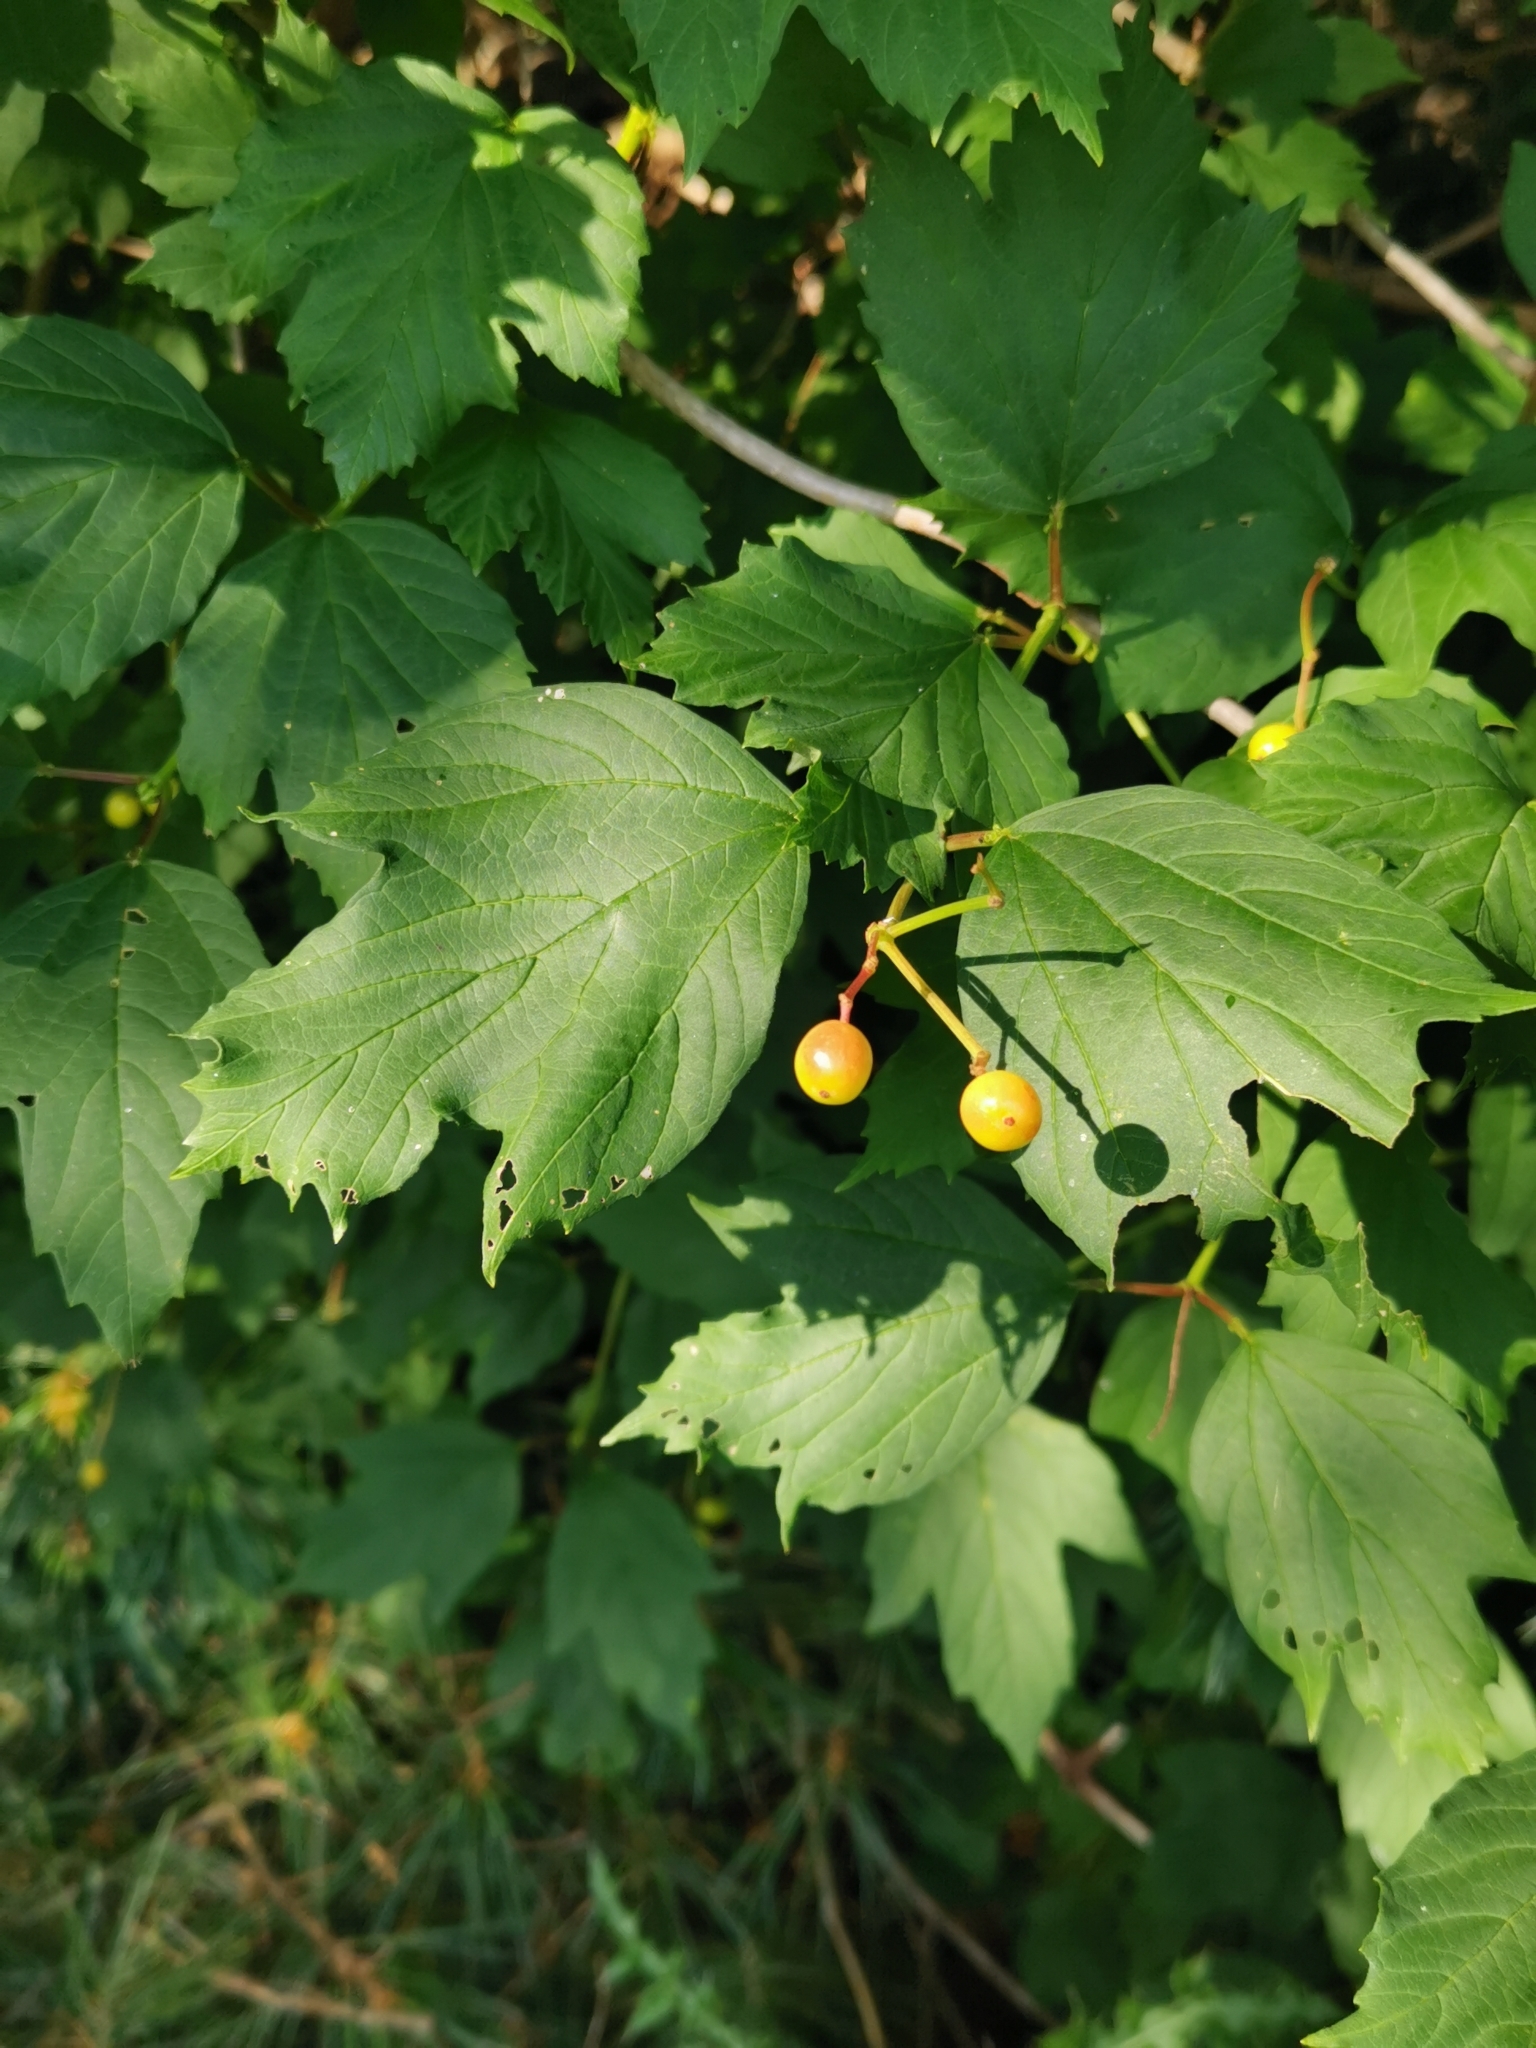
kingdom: Plantae
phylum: Tracheophyta
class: Magnoliopsida
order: Dipsacales
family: Viburnaceae
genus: Viburnum
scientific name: Viburnum opulus
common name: Guelder-rose
